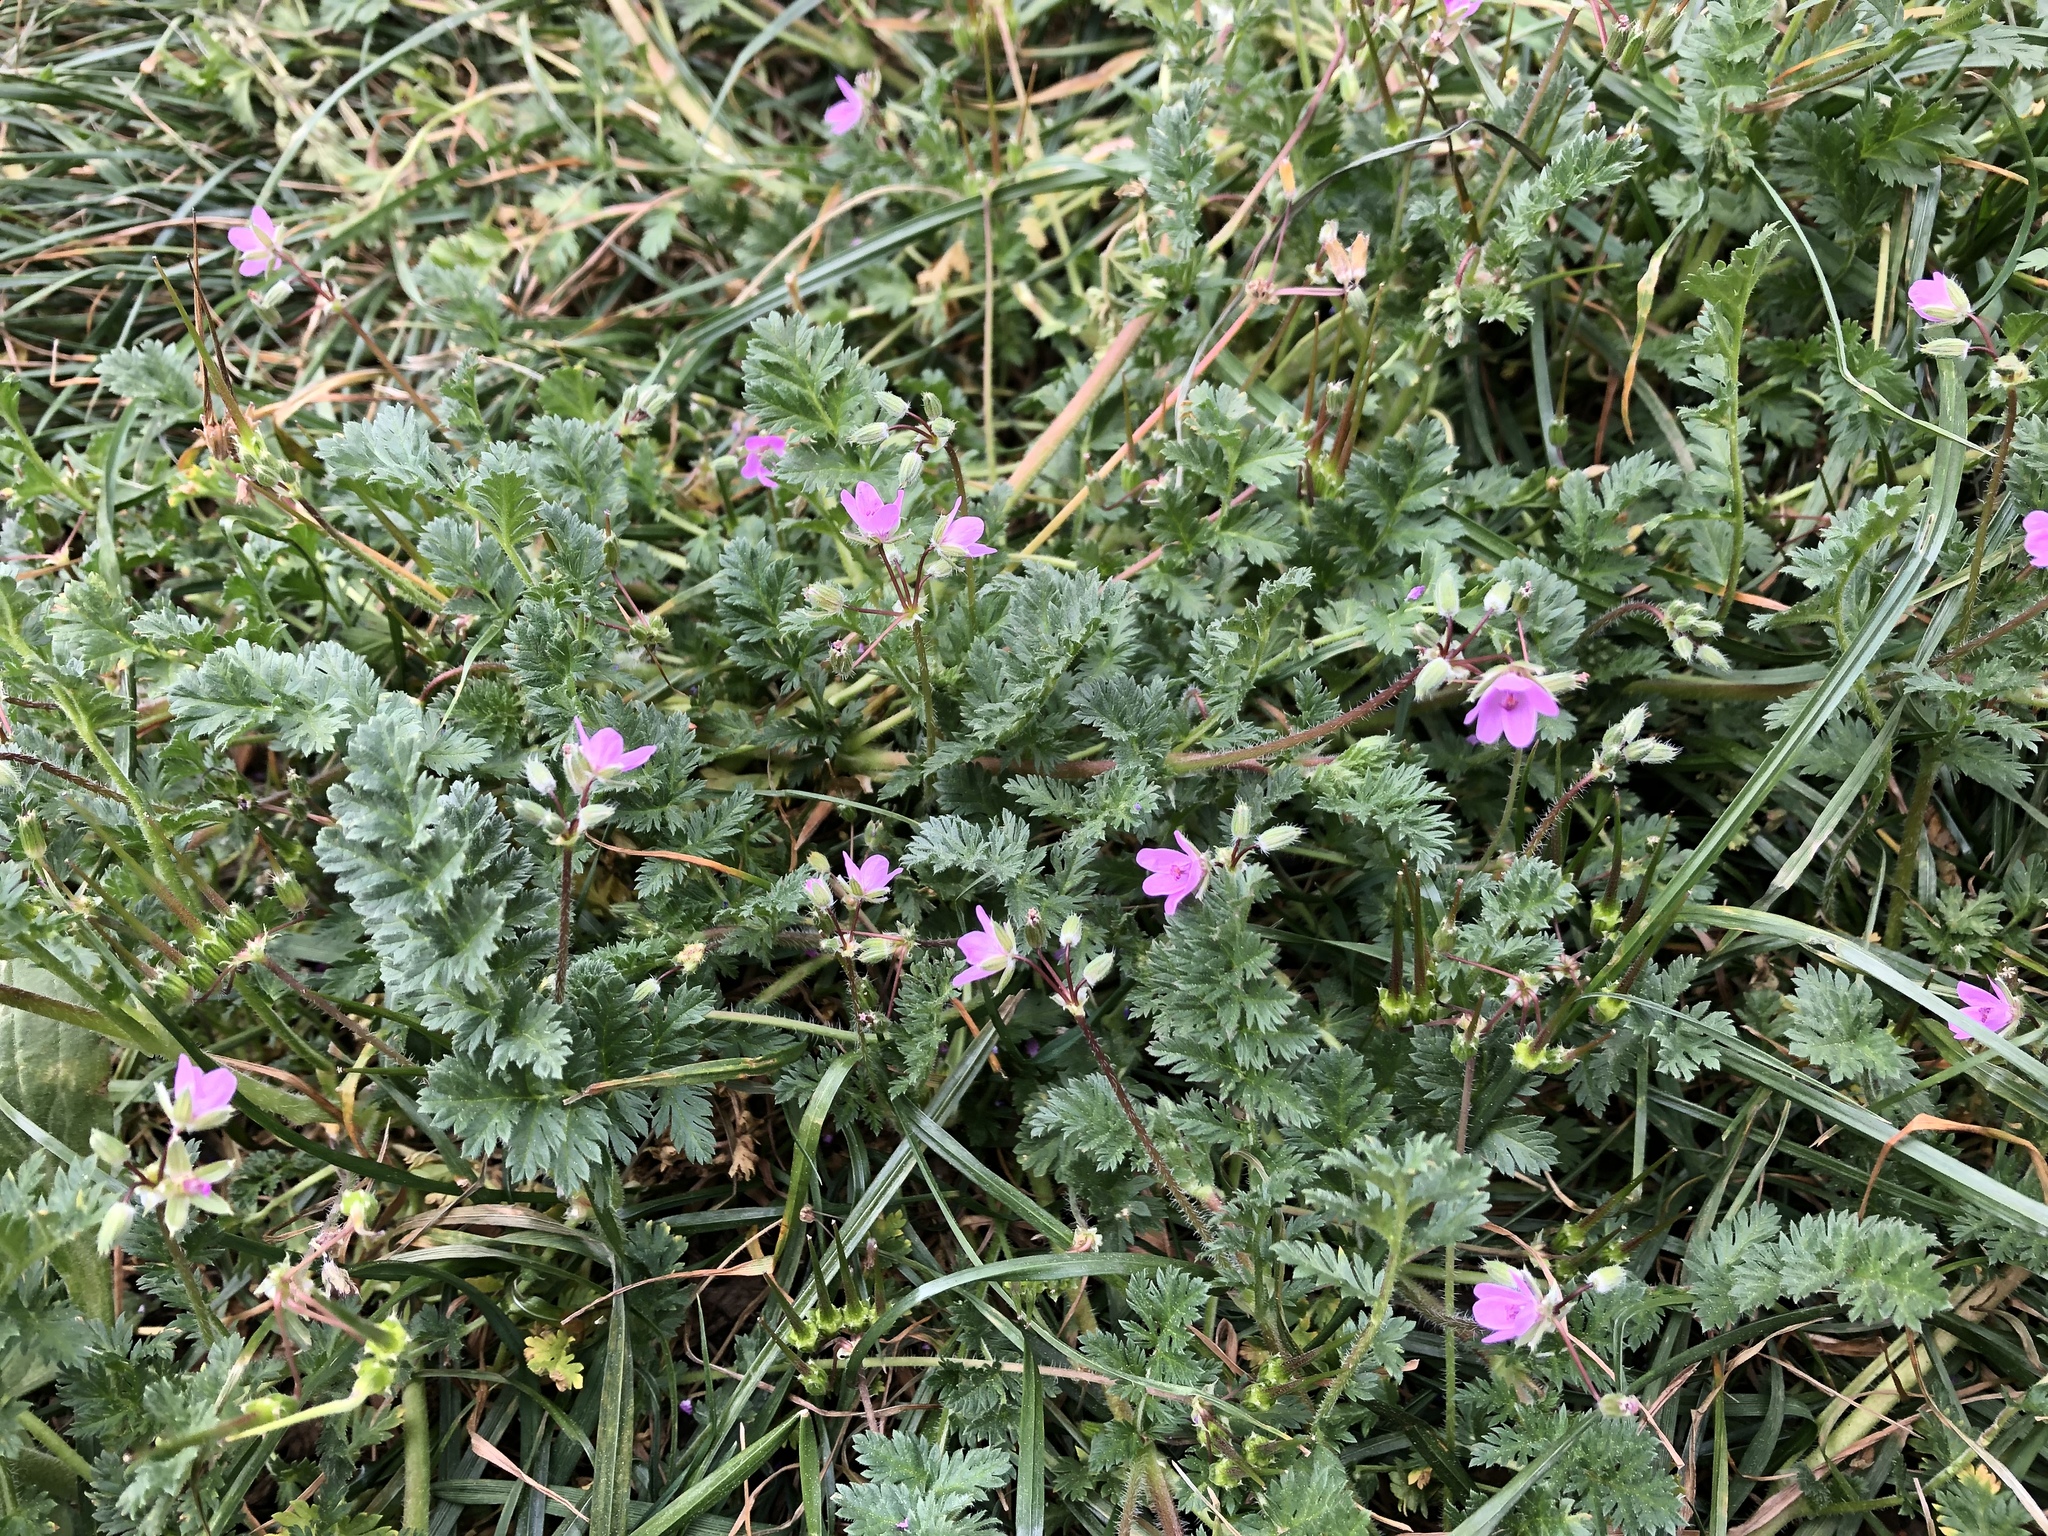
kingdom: Plantae
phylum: Tracheophyta
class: Magnoliopsida
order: Geraniales
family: Geraniaceae
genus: Erodium
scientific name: Erodium cicutarium
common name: Common stork's-bill
